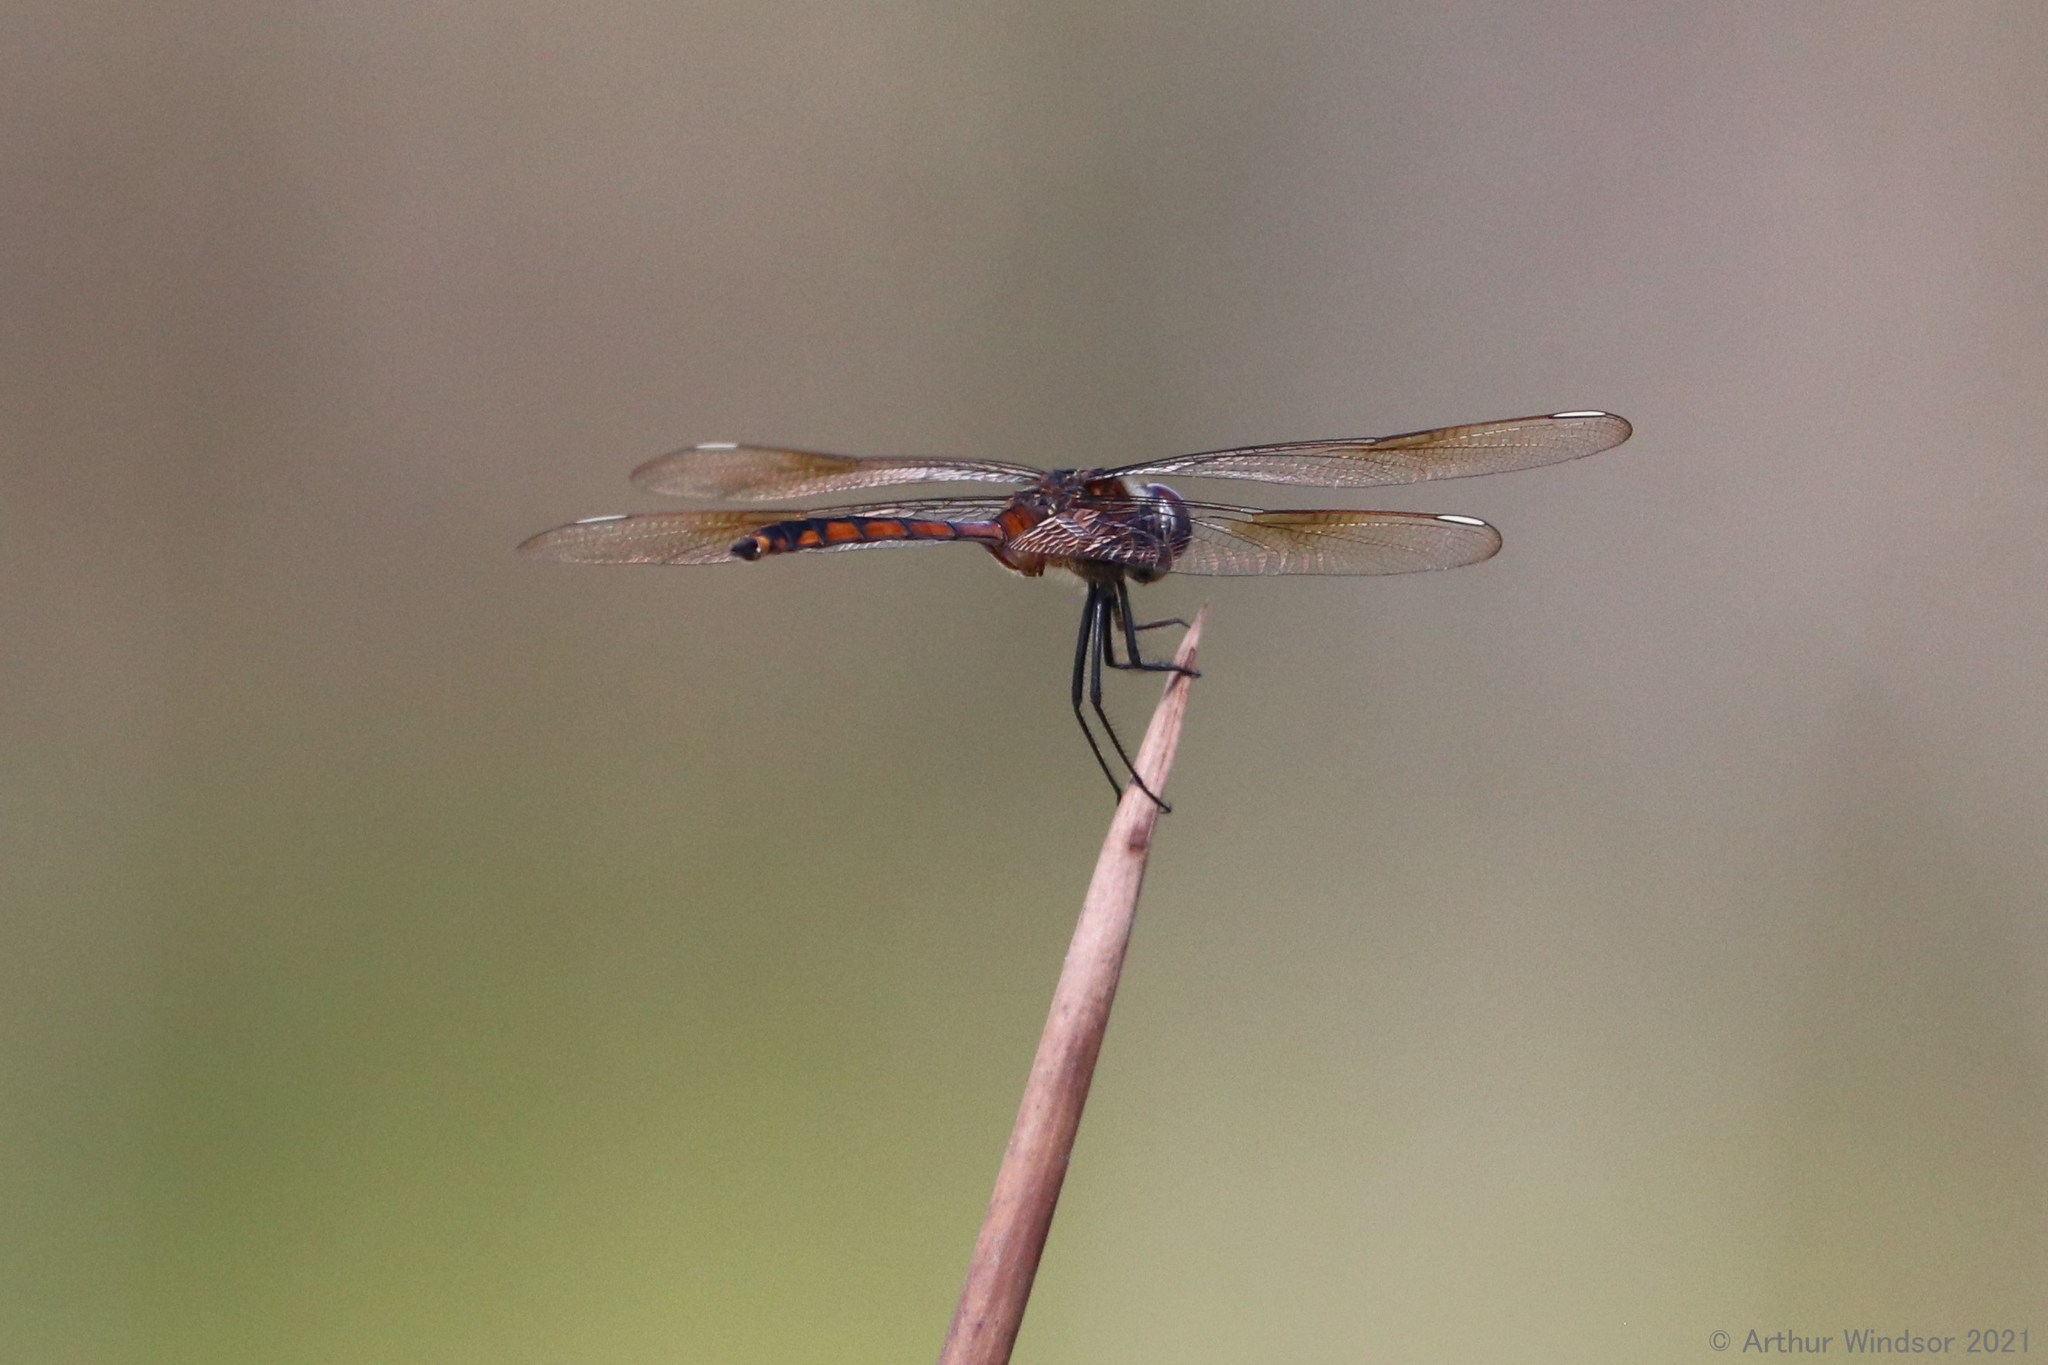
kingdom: Animalia
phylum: Arthropoda
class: Insecta
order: Odonata
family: Libellulidae
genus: Brachymesia
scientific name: Brachymesia gravida
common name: Four-spotted pennant
